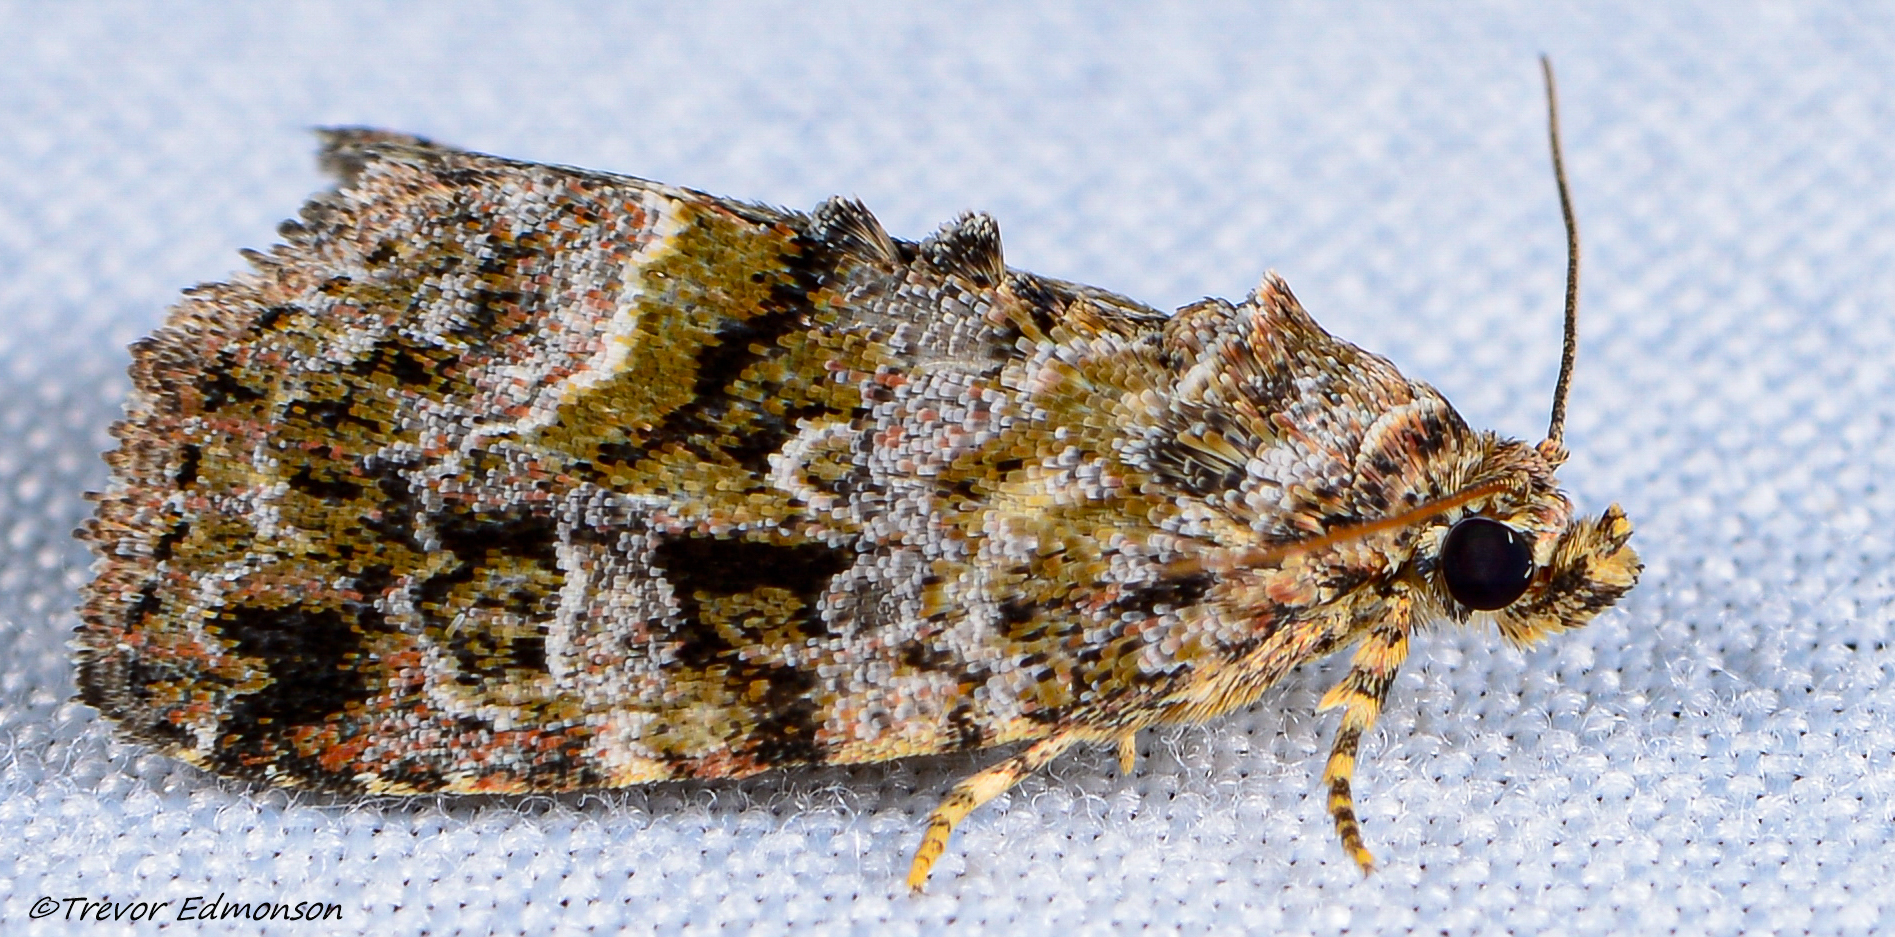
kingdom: Animalia
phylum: Arthropoda
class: Insecta
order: Lepidoptera
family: Noctuidae
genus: Protodeltote
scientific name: Protodeltote muscosula
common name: Large mossy glyph
